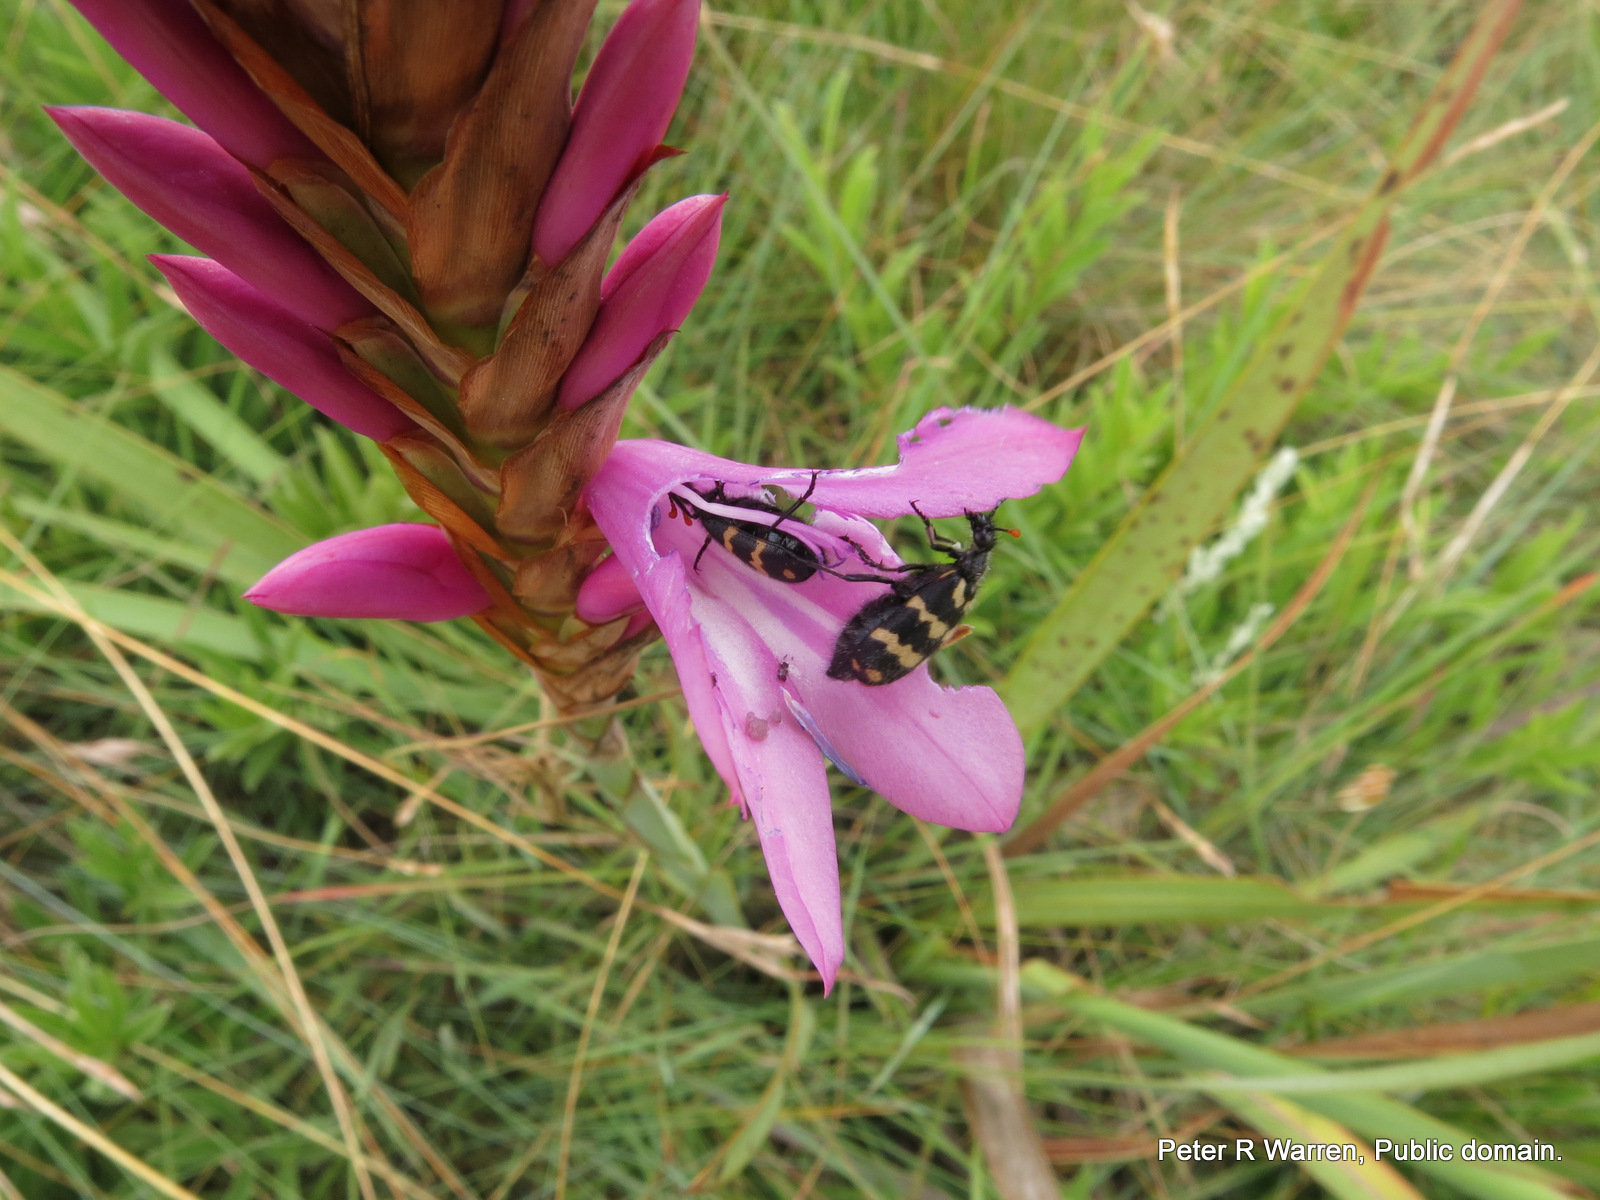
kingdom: Animalia
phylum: Arthropoda
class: Insecta
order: Coleoptera
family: Meloidae
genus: Hycleus
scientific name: Hycleus pilosus
